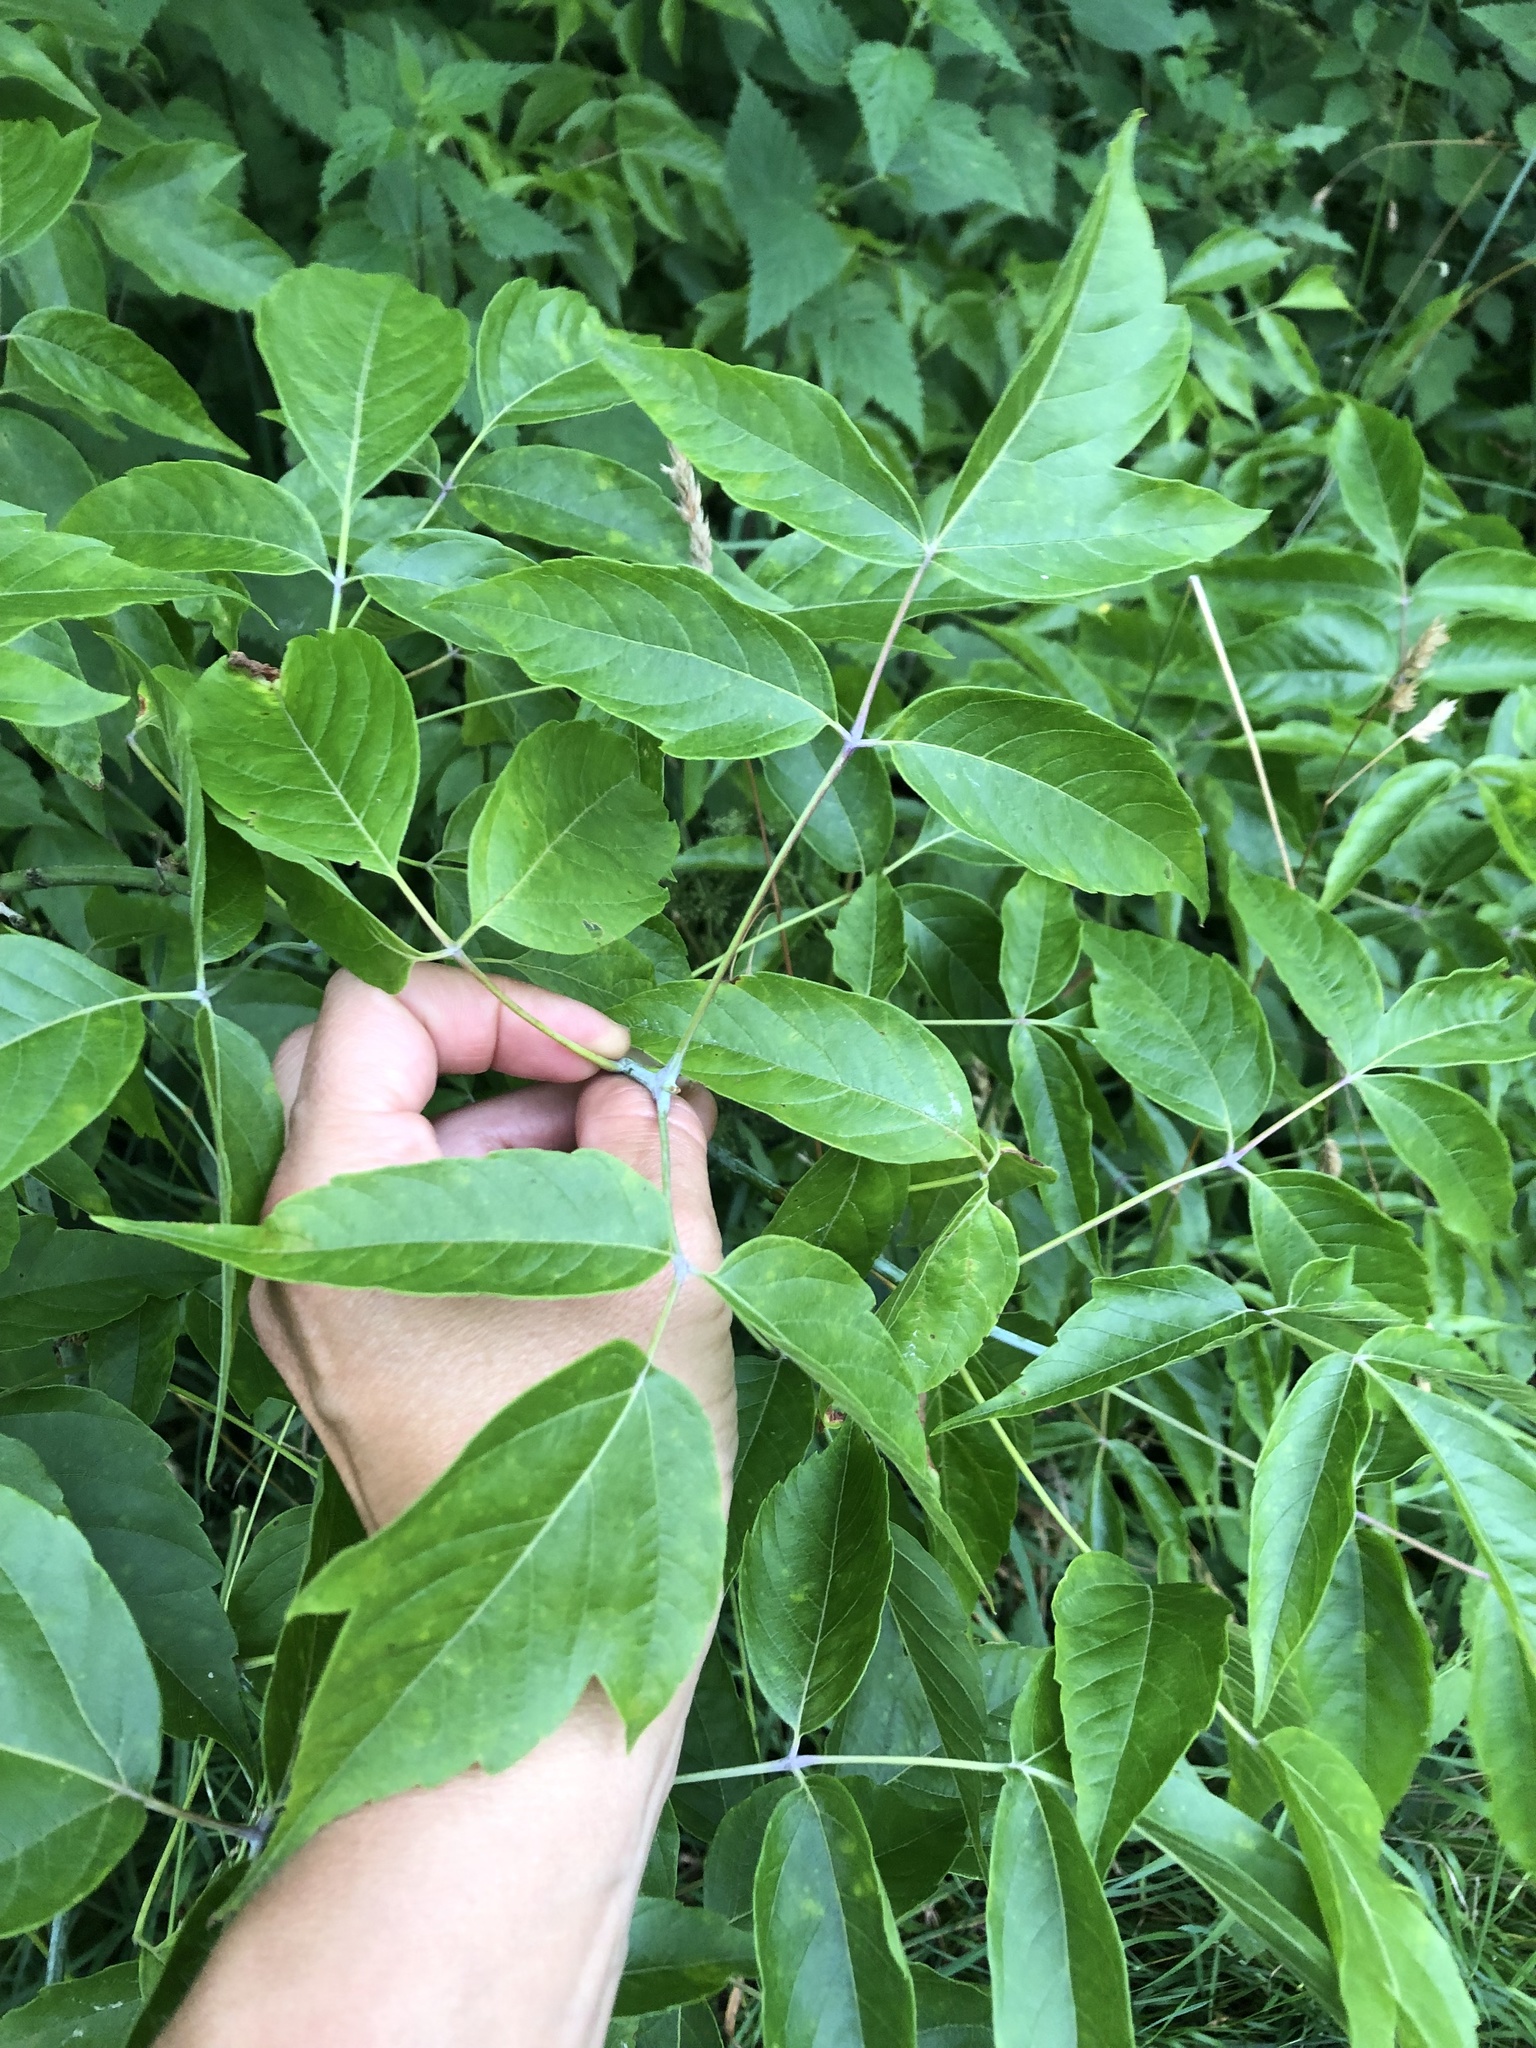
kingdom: Plantae
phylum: Tracheophyta
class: Magnoliopsida
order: Sapindales
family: Sapindaceae
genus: Acer
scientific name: Acer negundo
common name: Ashleaf maple
